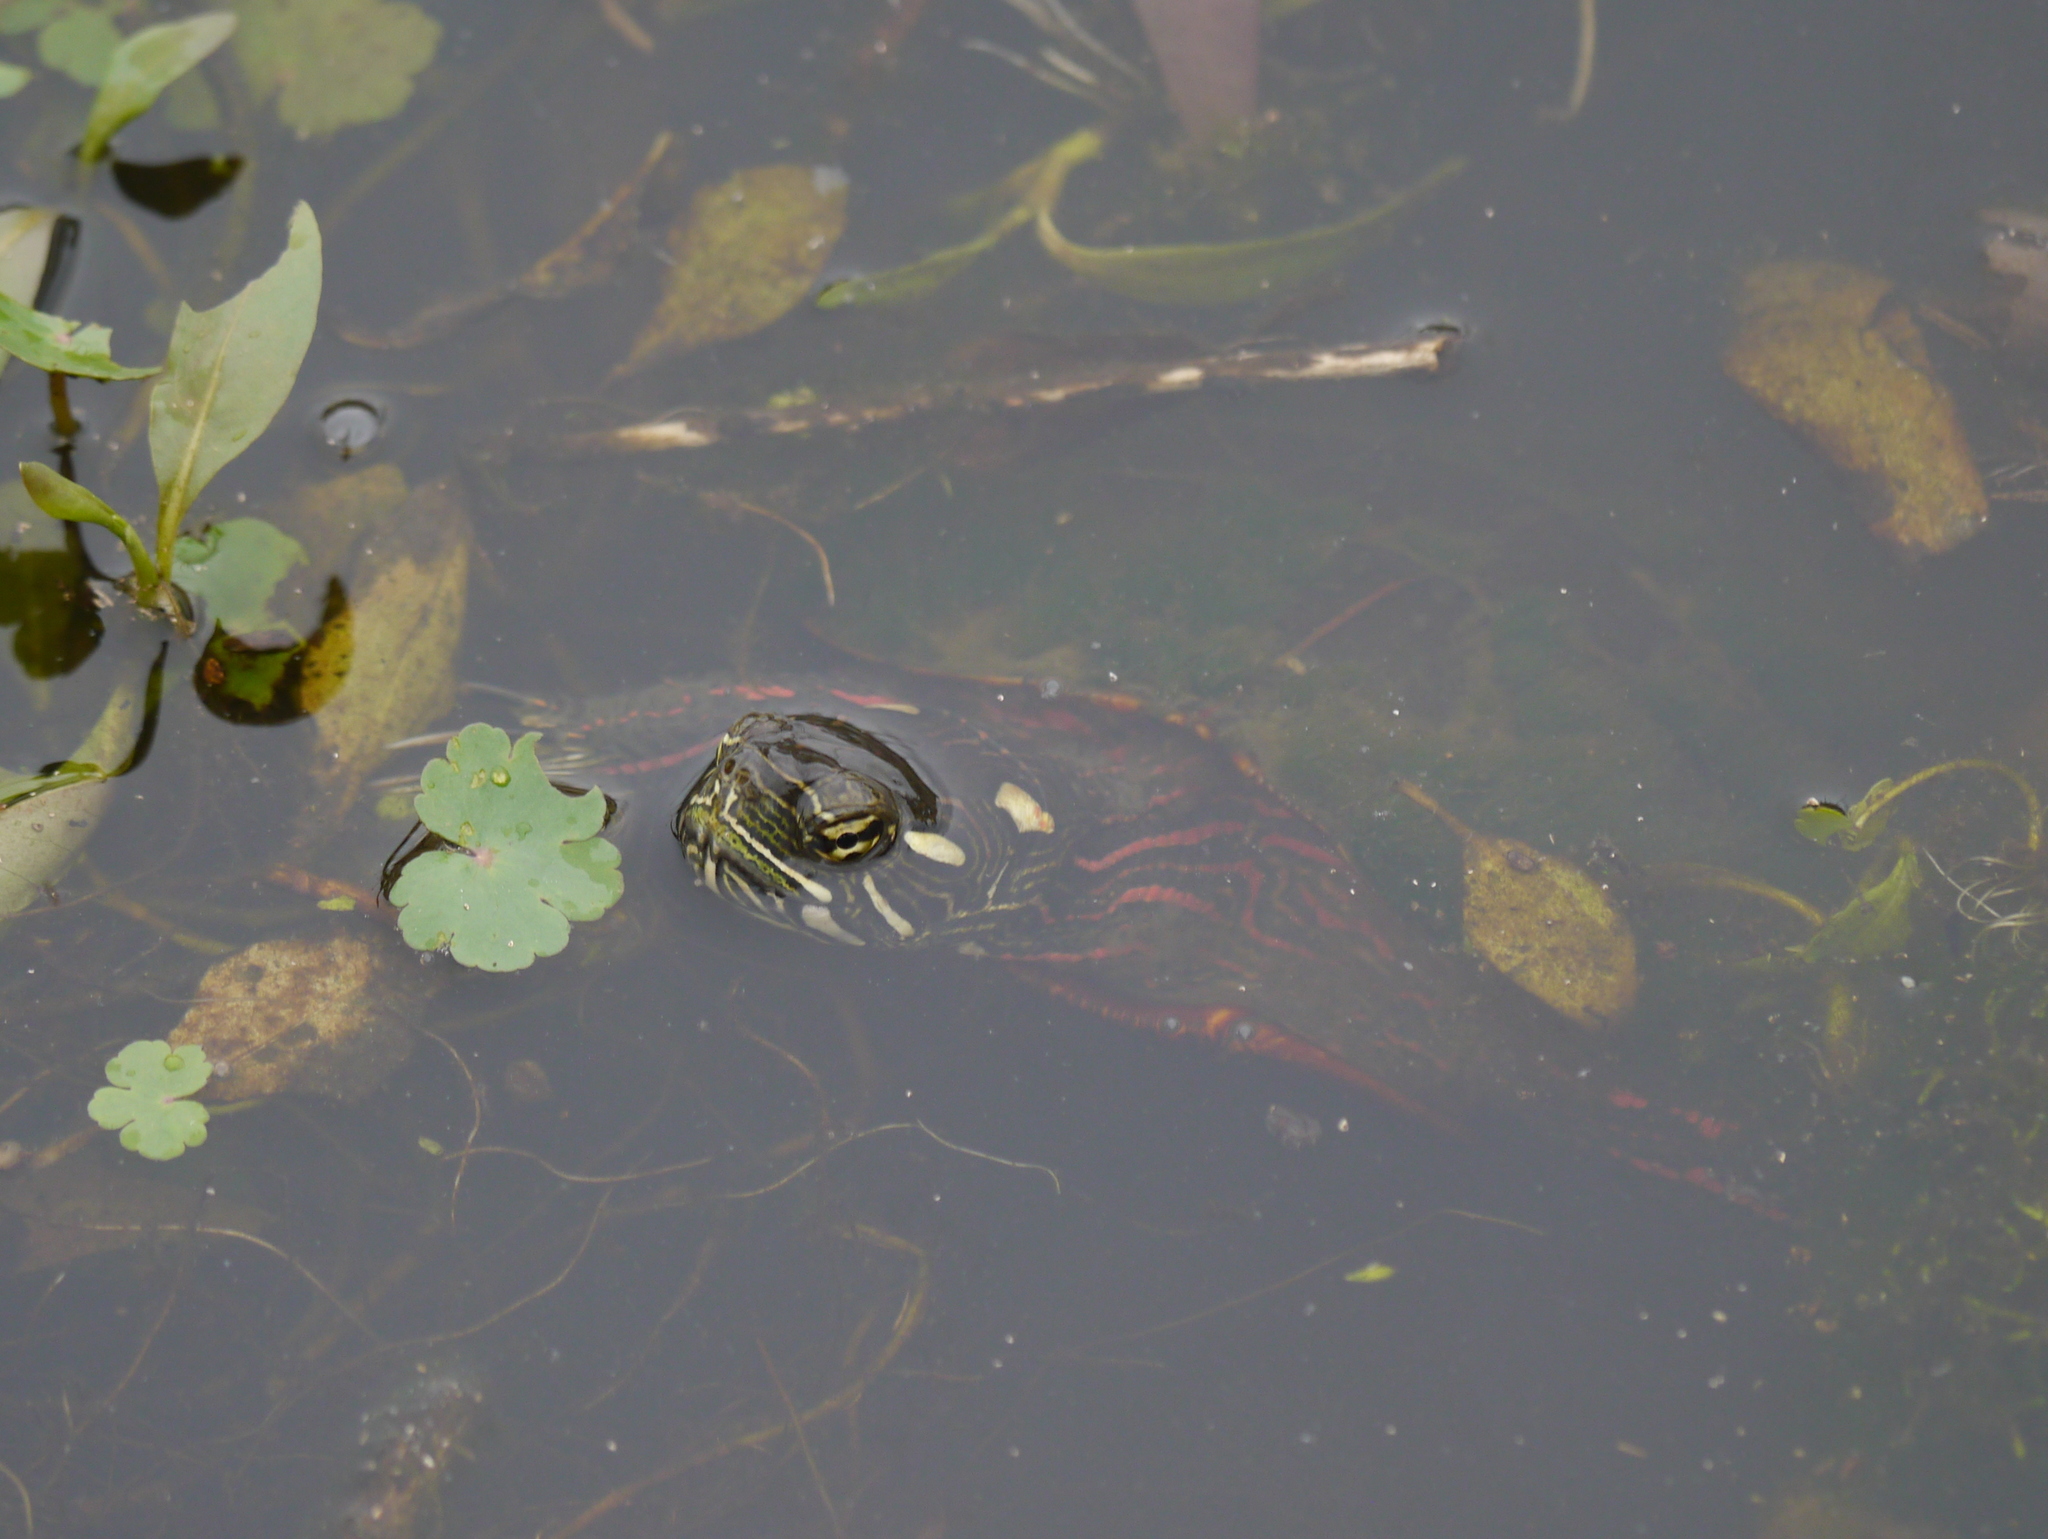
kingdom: Animalia
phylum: Chordata
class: Testudines
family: Emydidae
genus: Chrysemys
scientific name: Chrysemys picta
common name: Painted turtle
